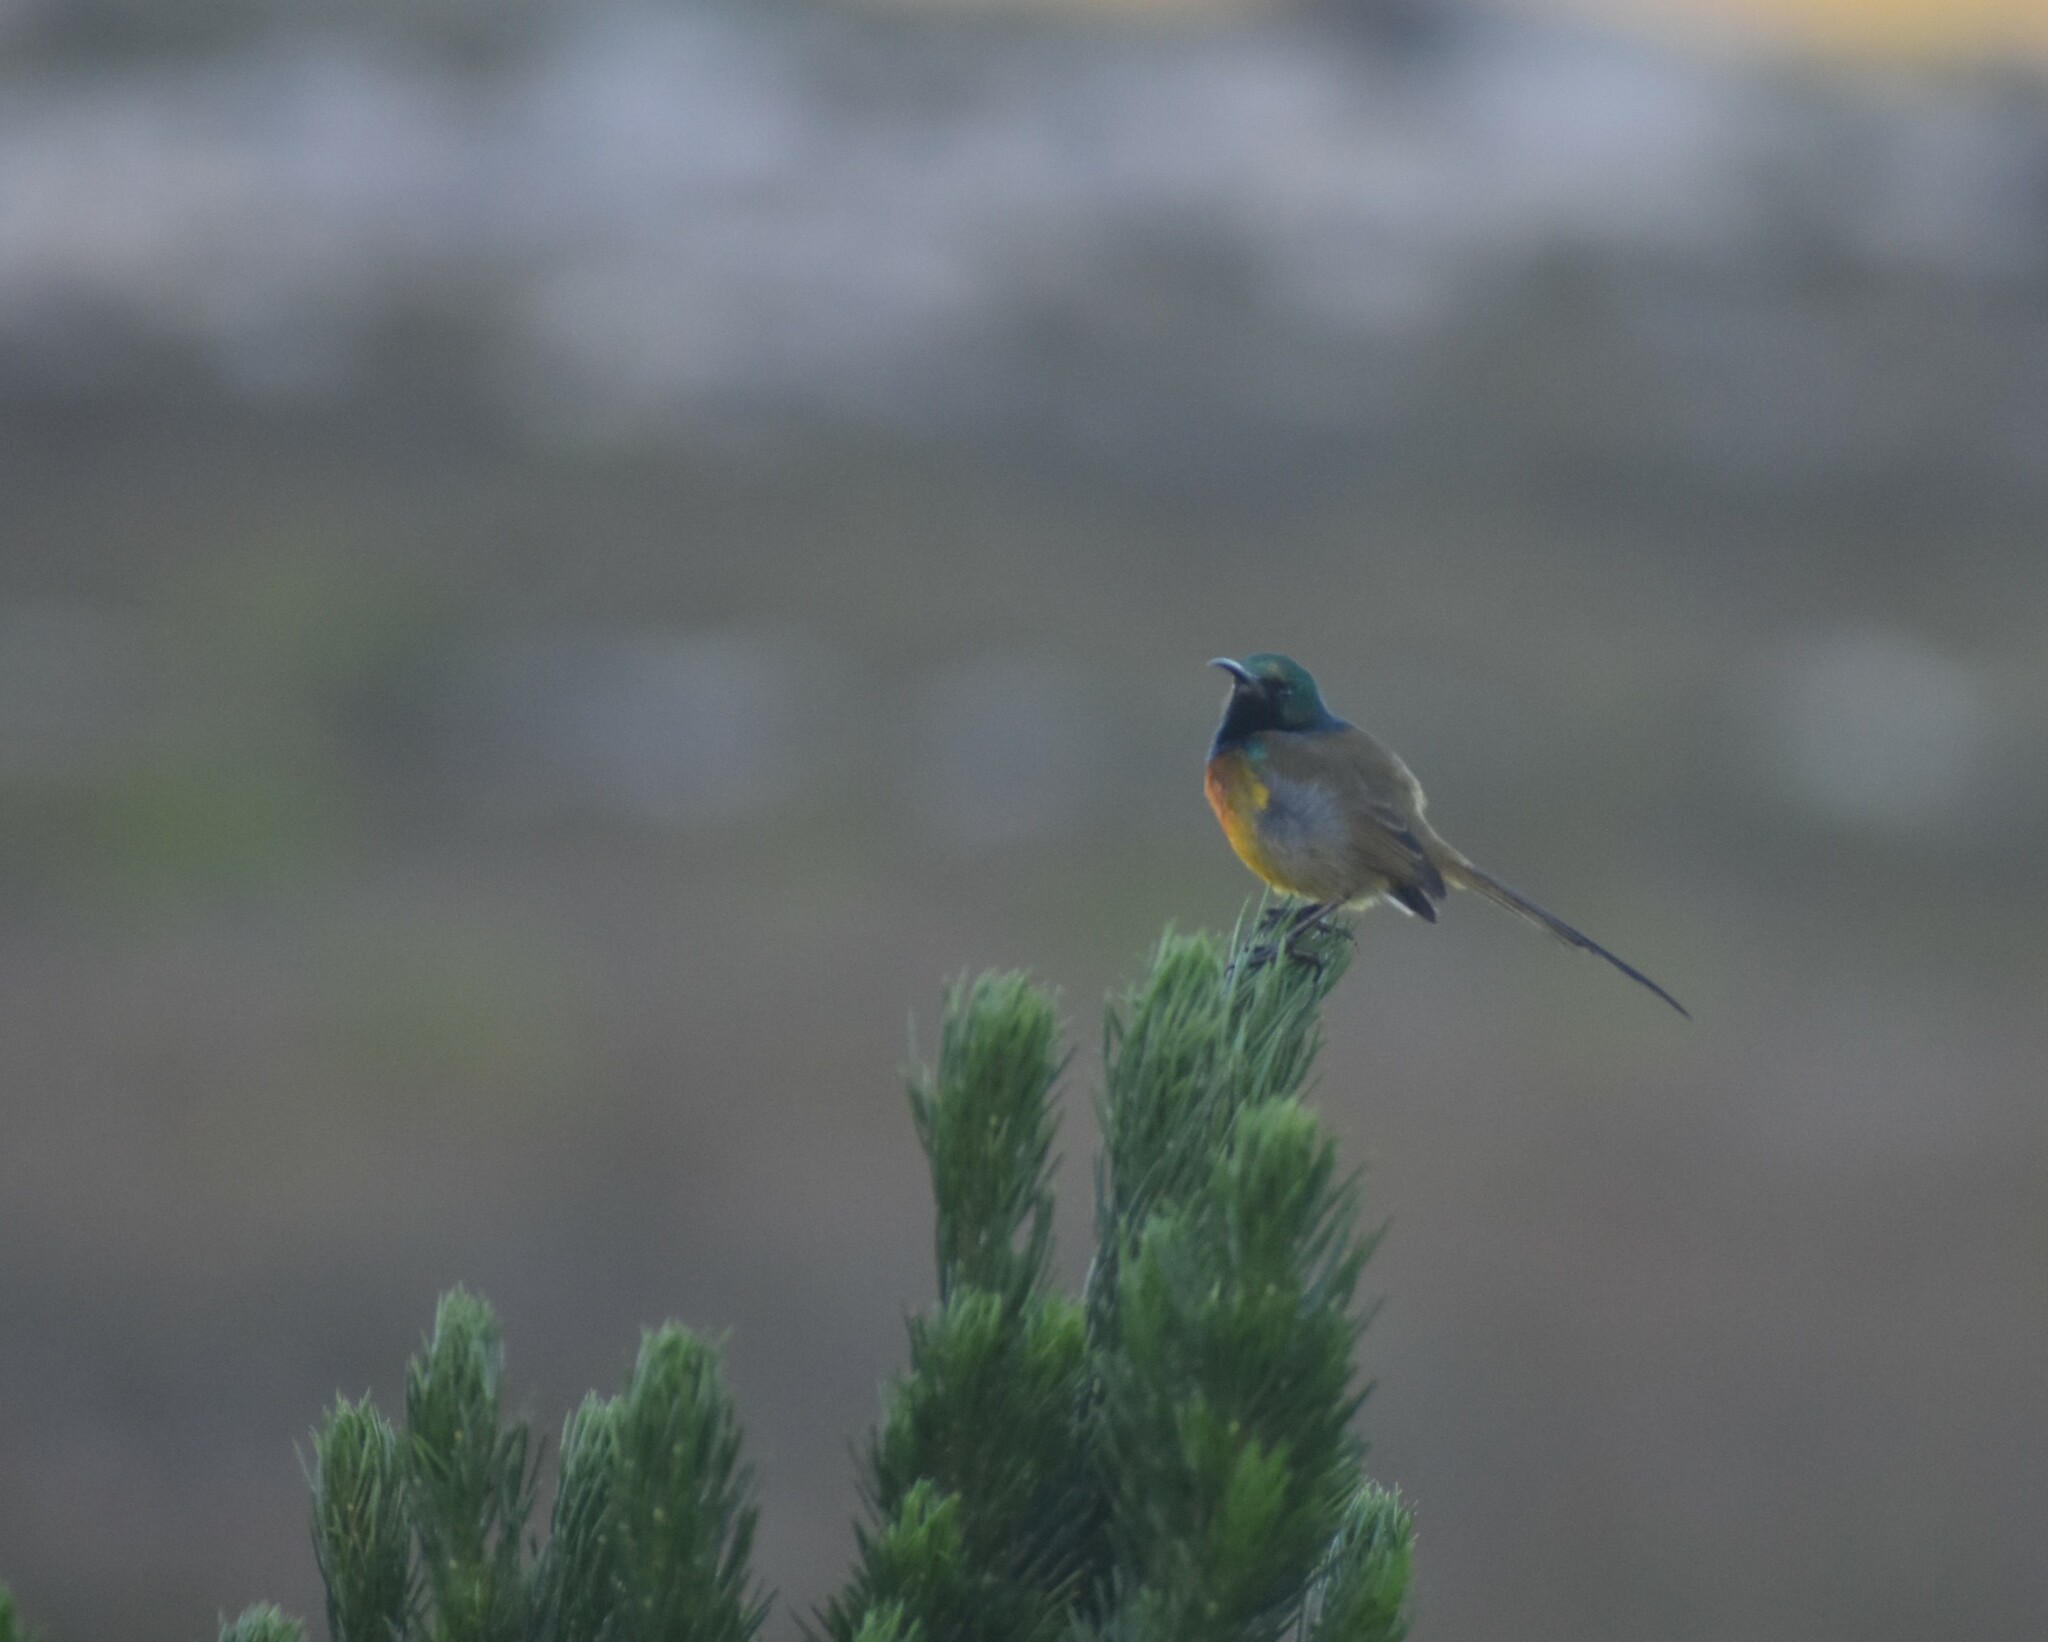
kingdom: Animalia
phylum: Chordata
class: Aves
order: Passeriformes
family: Nectariniidae
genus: Anthobaphes
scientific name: Anthobaphes violacea
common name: Orange-breasted sunbird
